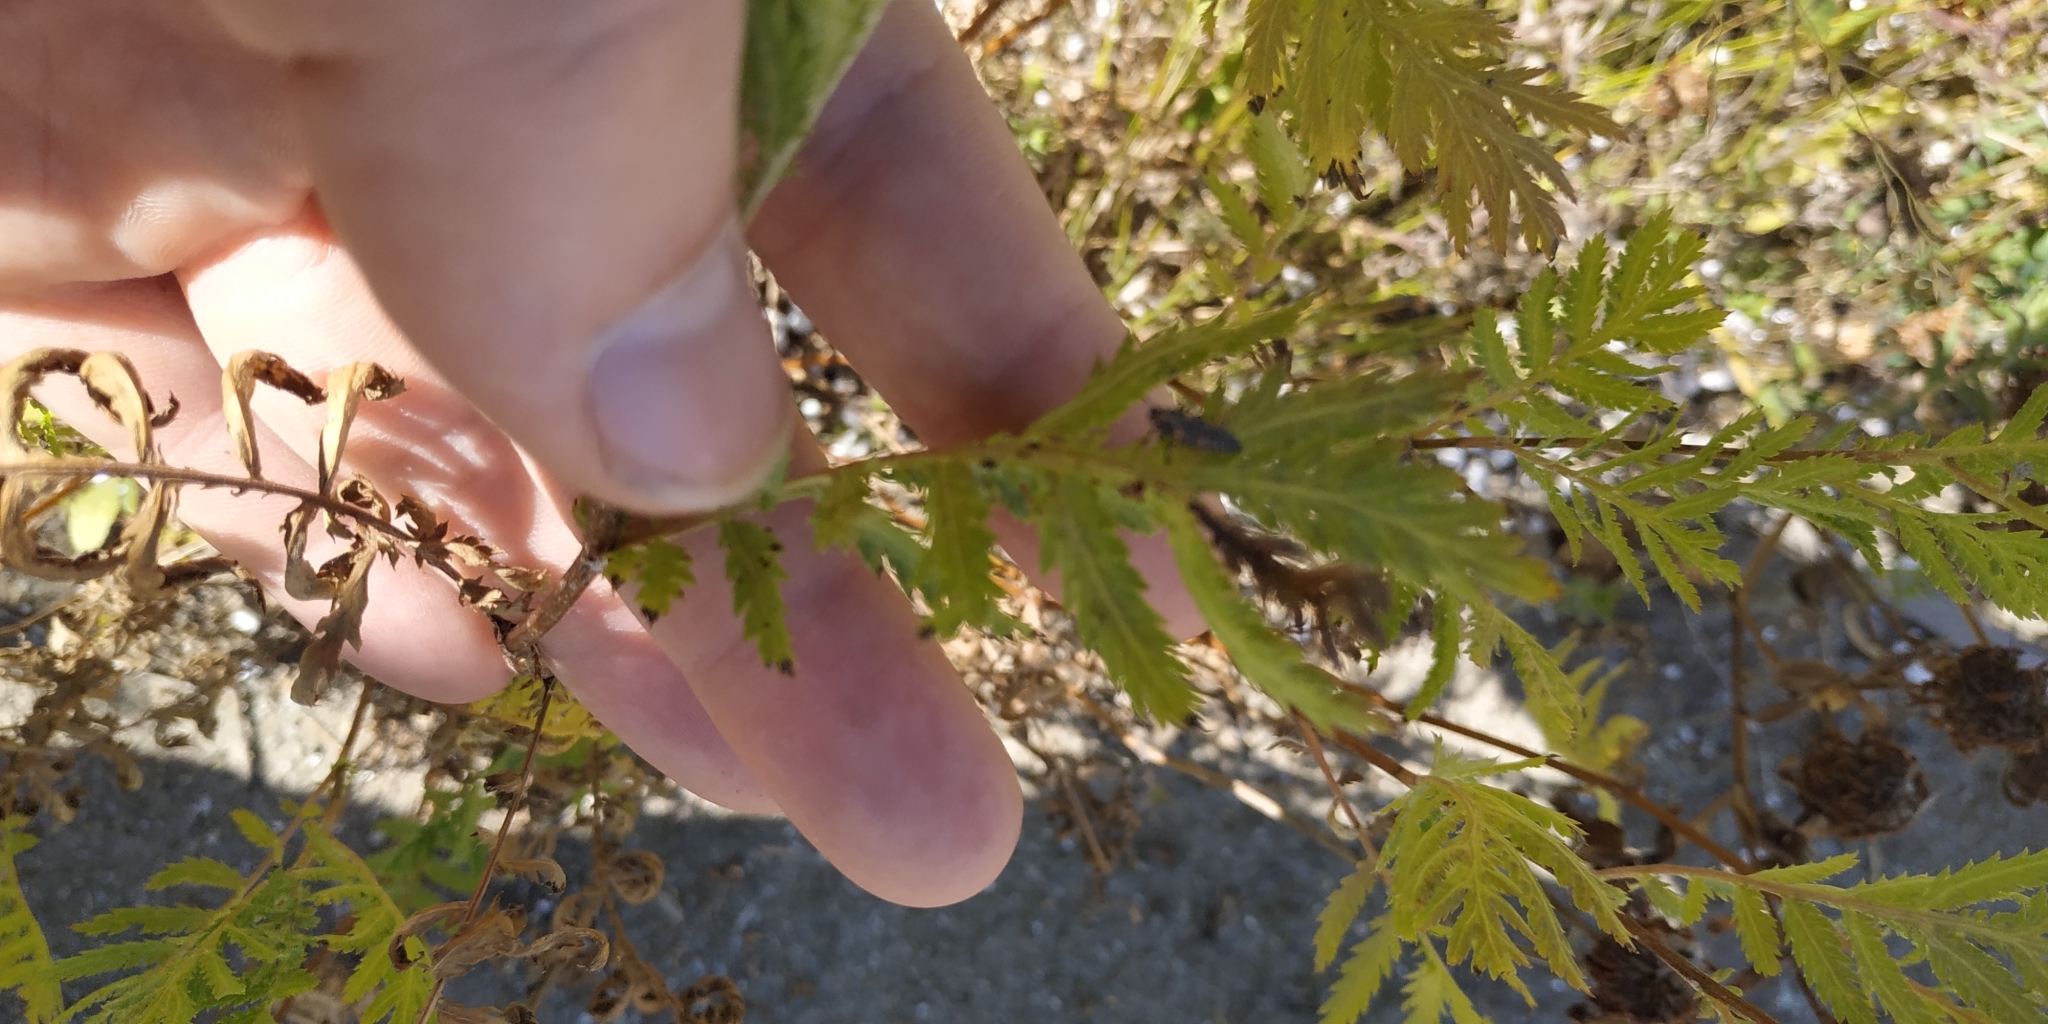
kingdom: Plantae
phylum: Tracheophyta
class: Magnoliopsida
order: Asterales
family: Asteraceae
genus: Tanacetum
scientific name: Tanacetum vulgare
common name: Common tansy
